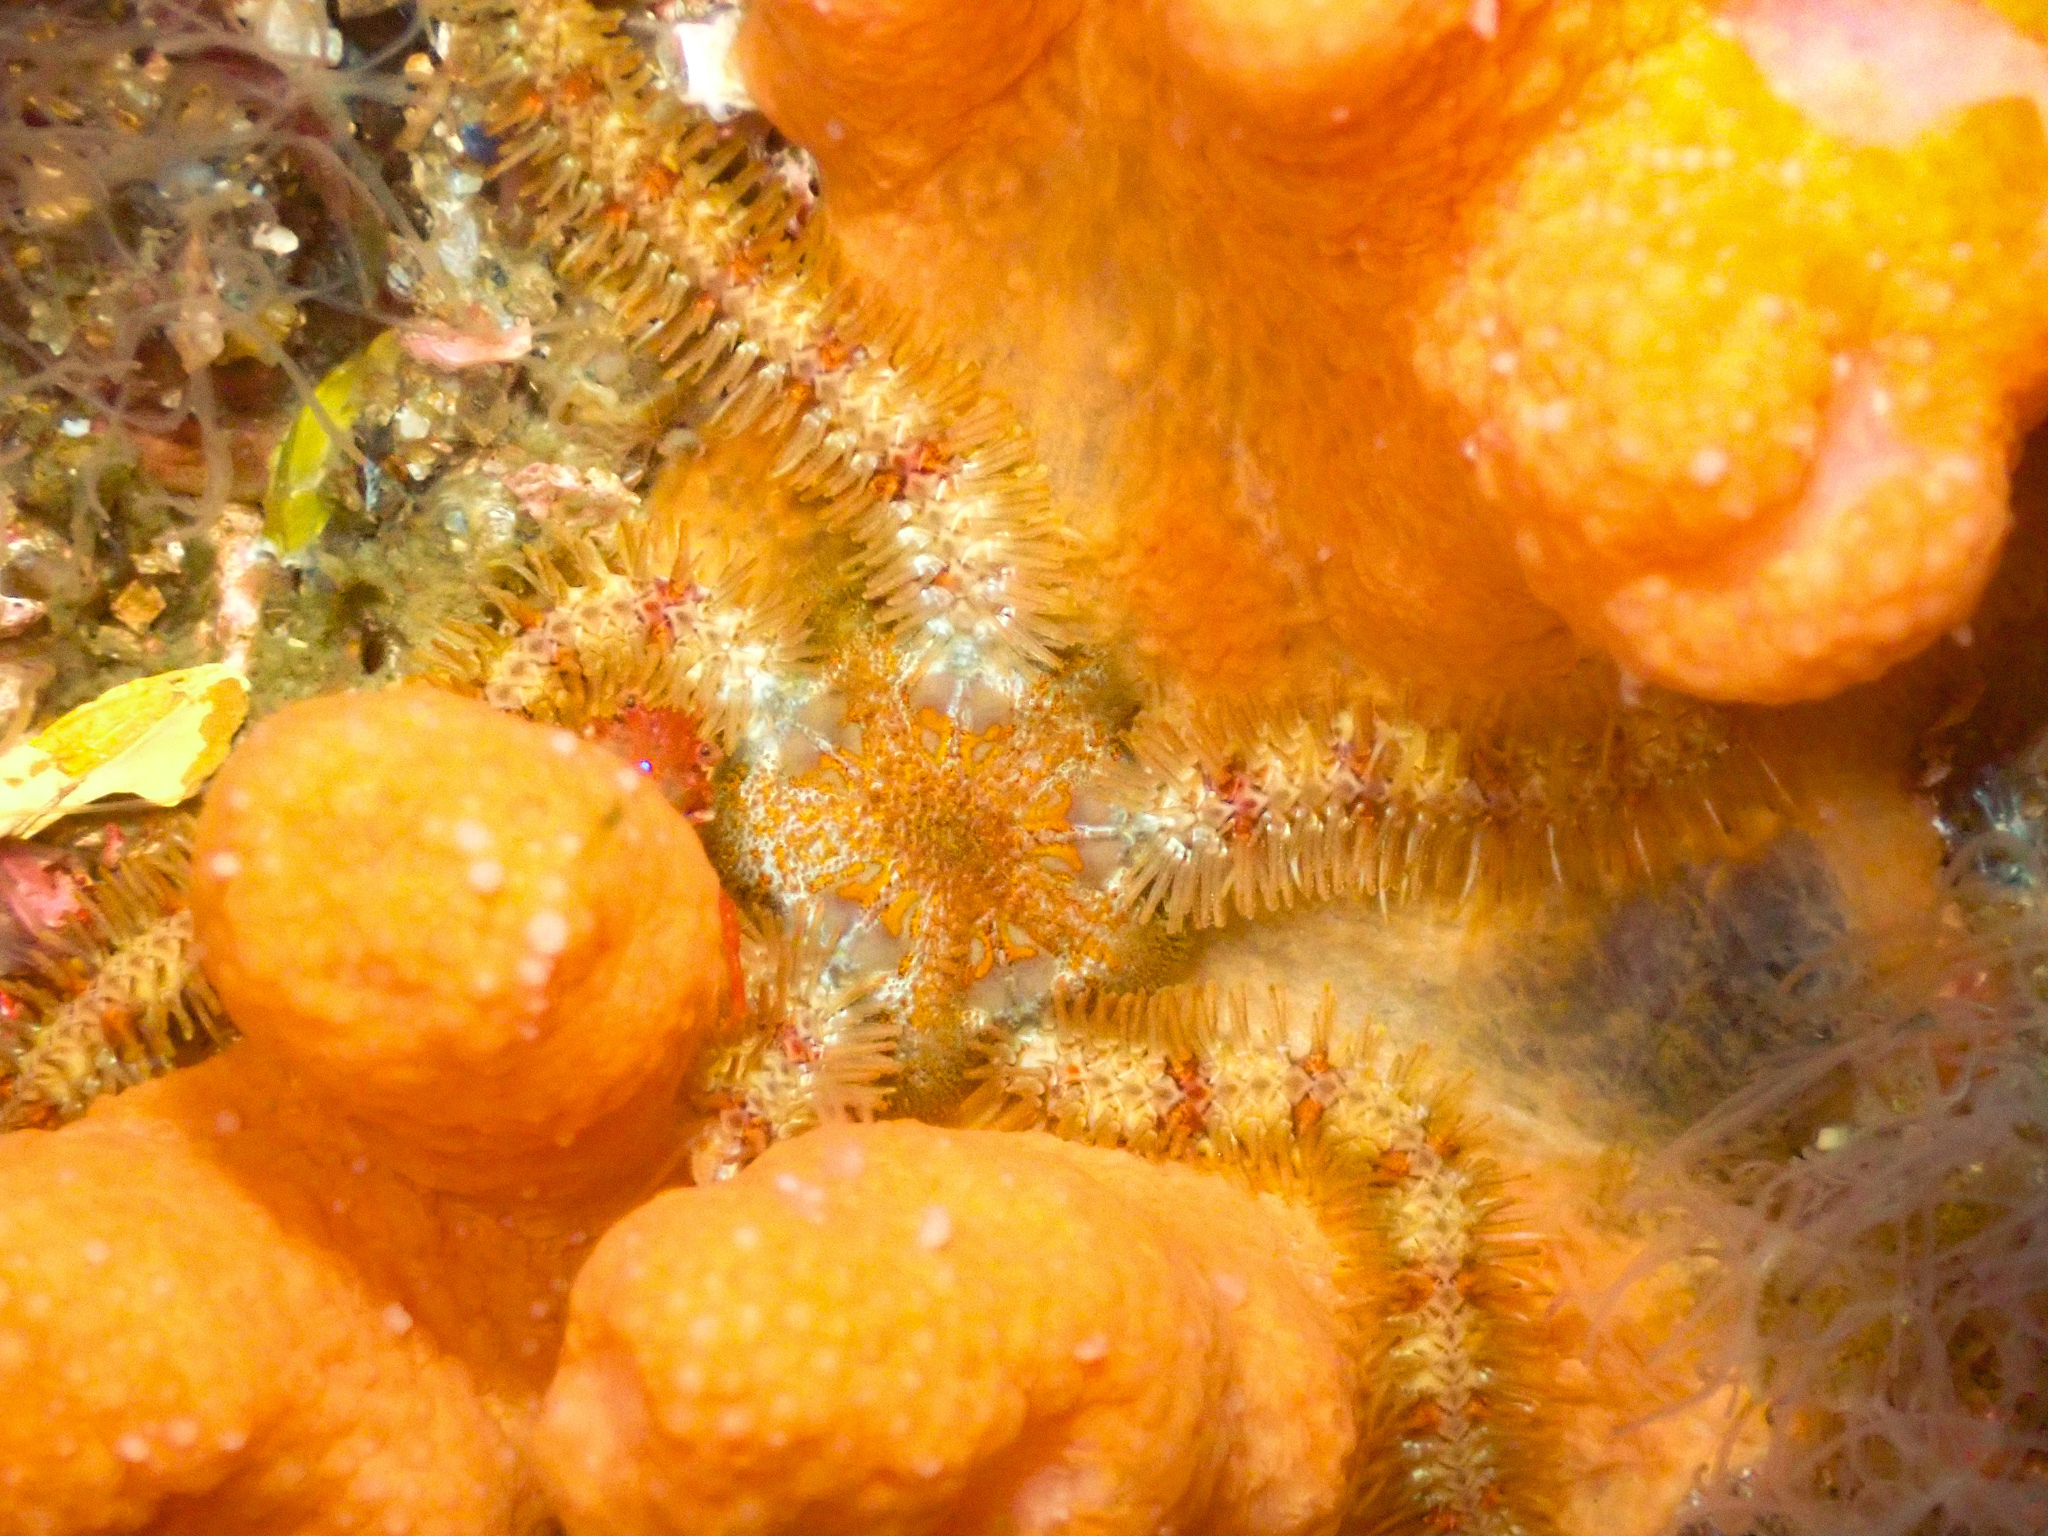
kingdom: Animalia
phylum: Echinodermata
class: Ophiuroidea
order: Amphilepidida
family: Ophiotrichidae
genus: Ophiothrix
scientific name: Ophiothrix fragilis
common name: Common brittlestar
